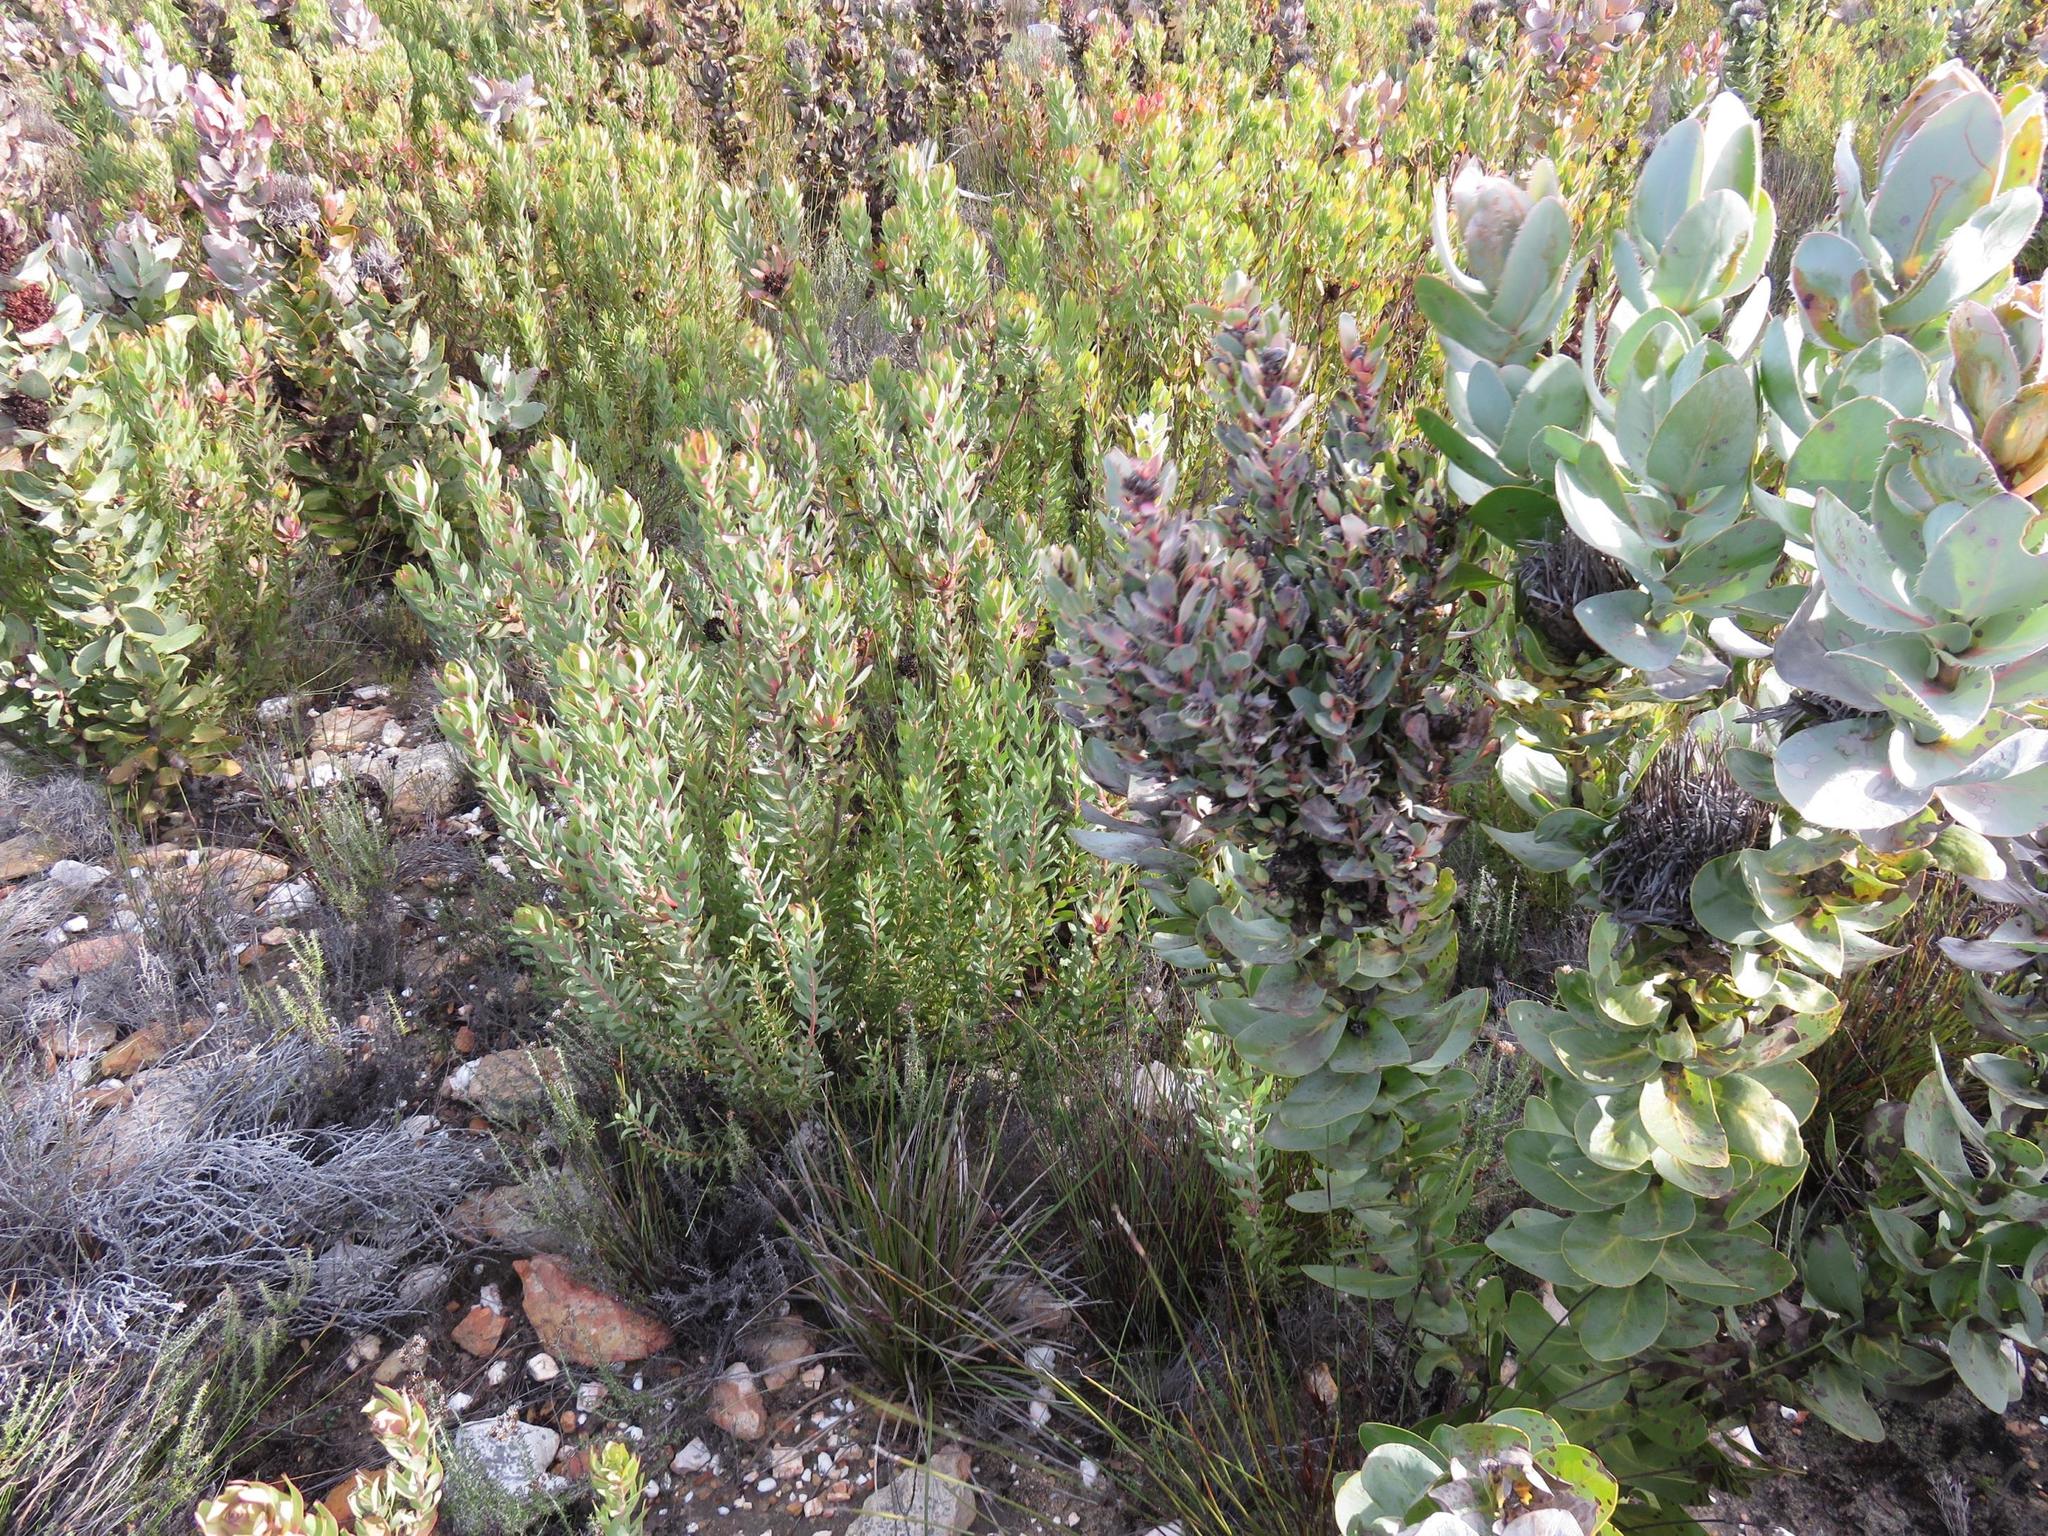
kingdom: Plantae
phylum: Tracheophyta
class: Magnoliopsida
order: Proteales
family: Proteaceae
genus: Protea
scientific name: Protea eximia
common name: Broad-leaved sugarbush
